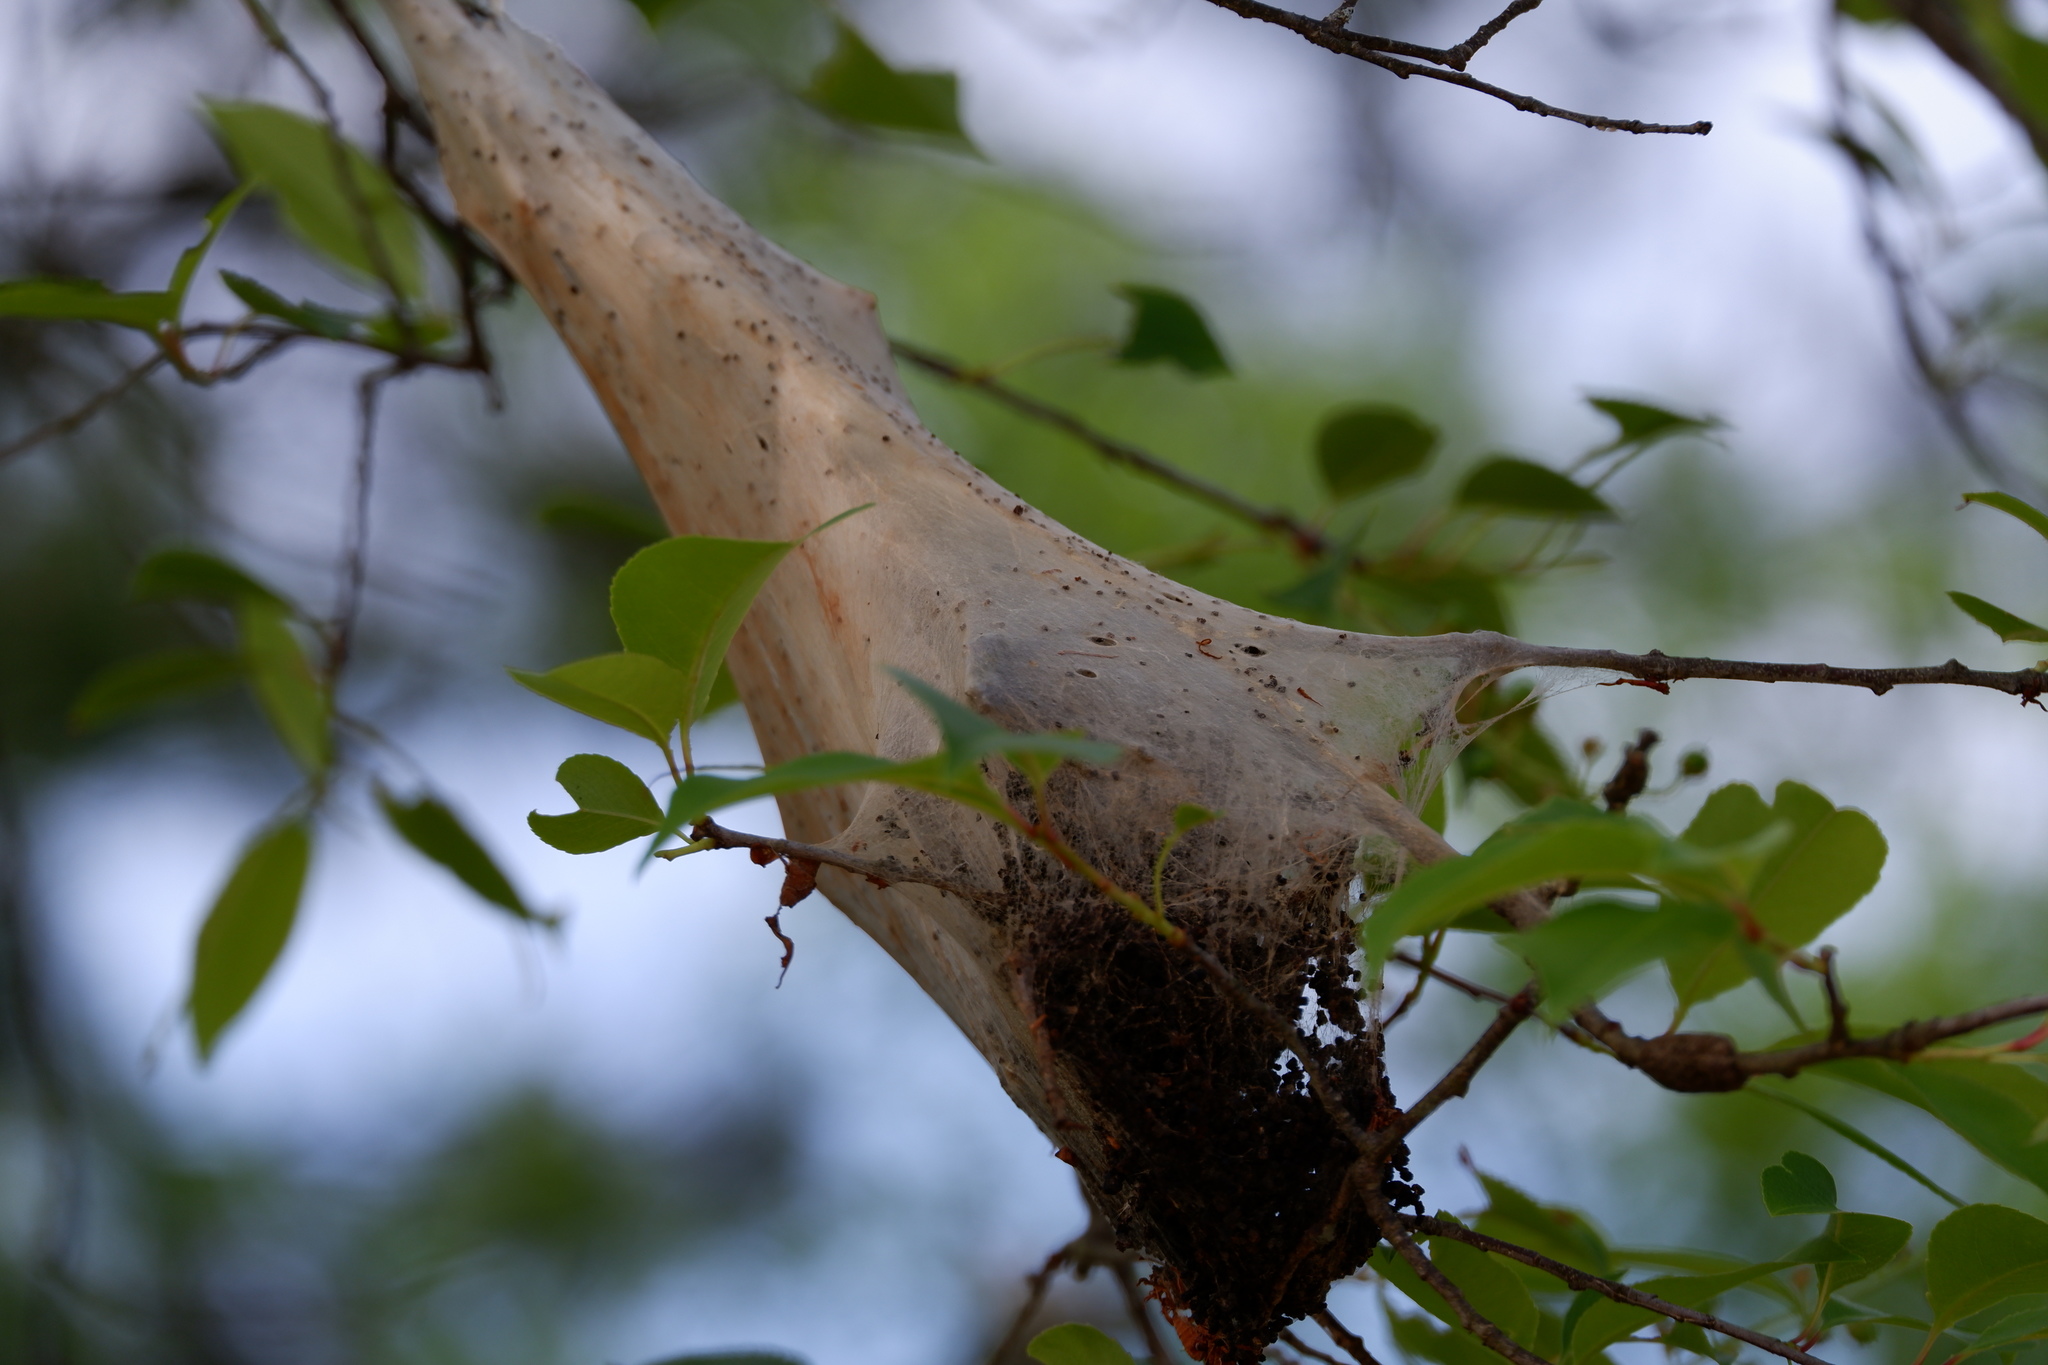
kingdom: Animalia
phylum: Arthropoda
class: Insecta
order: Lepidoptera
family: Lasiocampidae
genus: Malacosoma
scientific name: Malacosoma americana
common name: Eastern tent caterpillar moth
